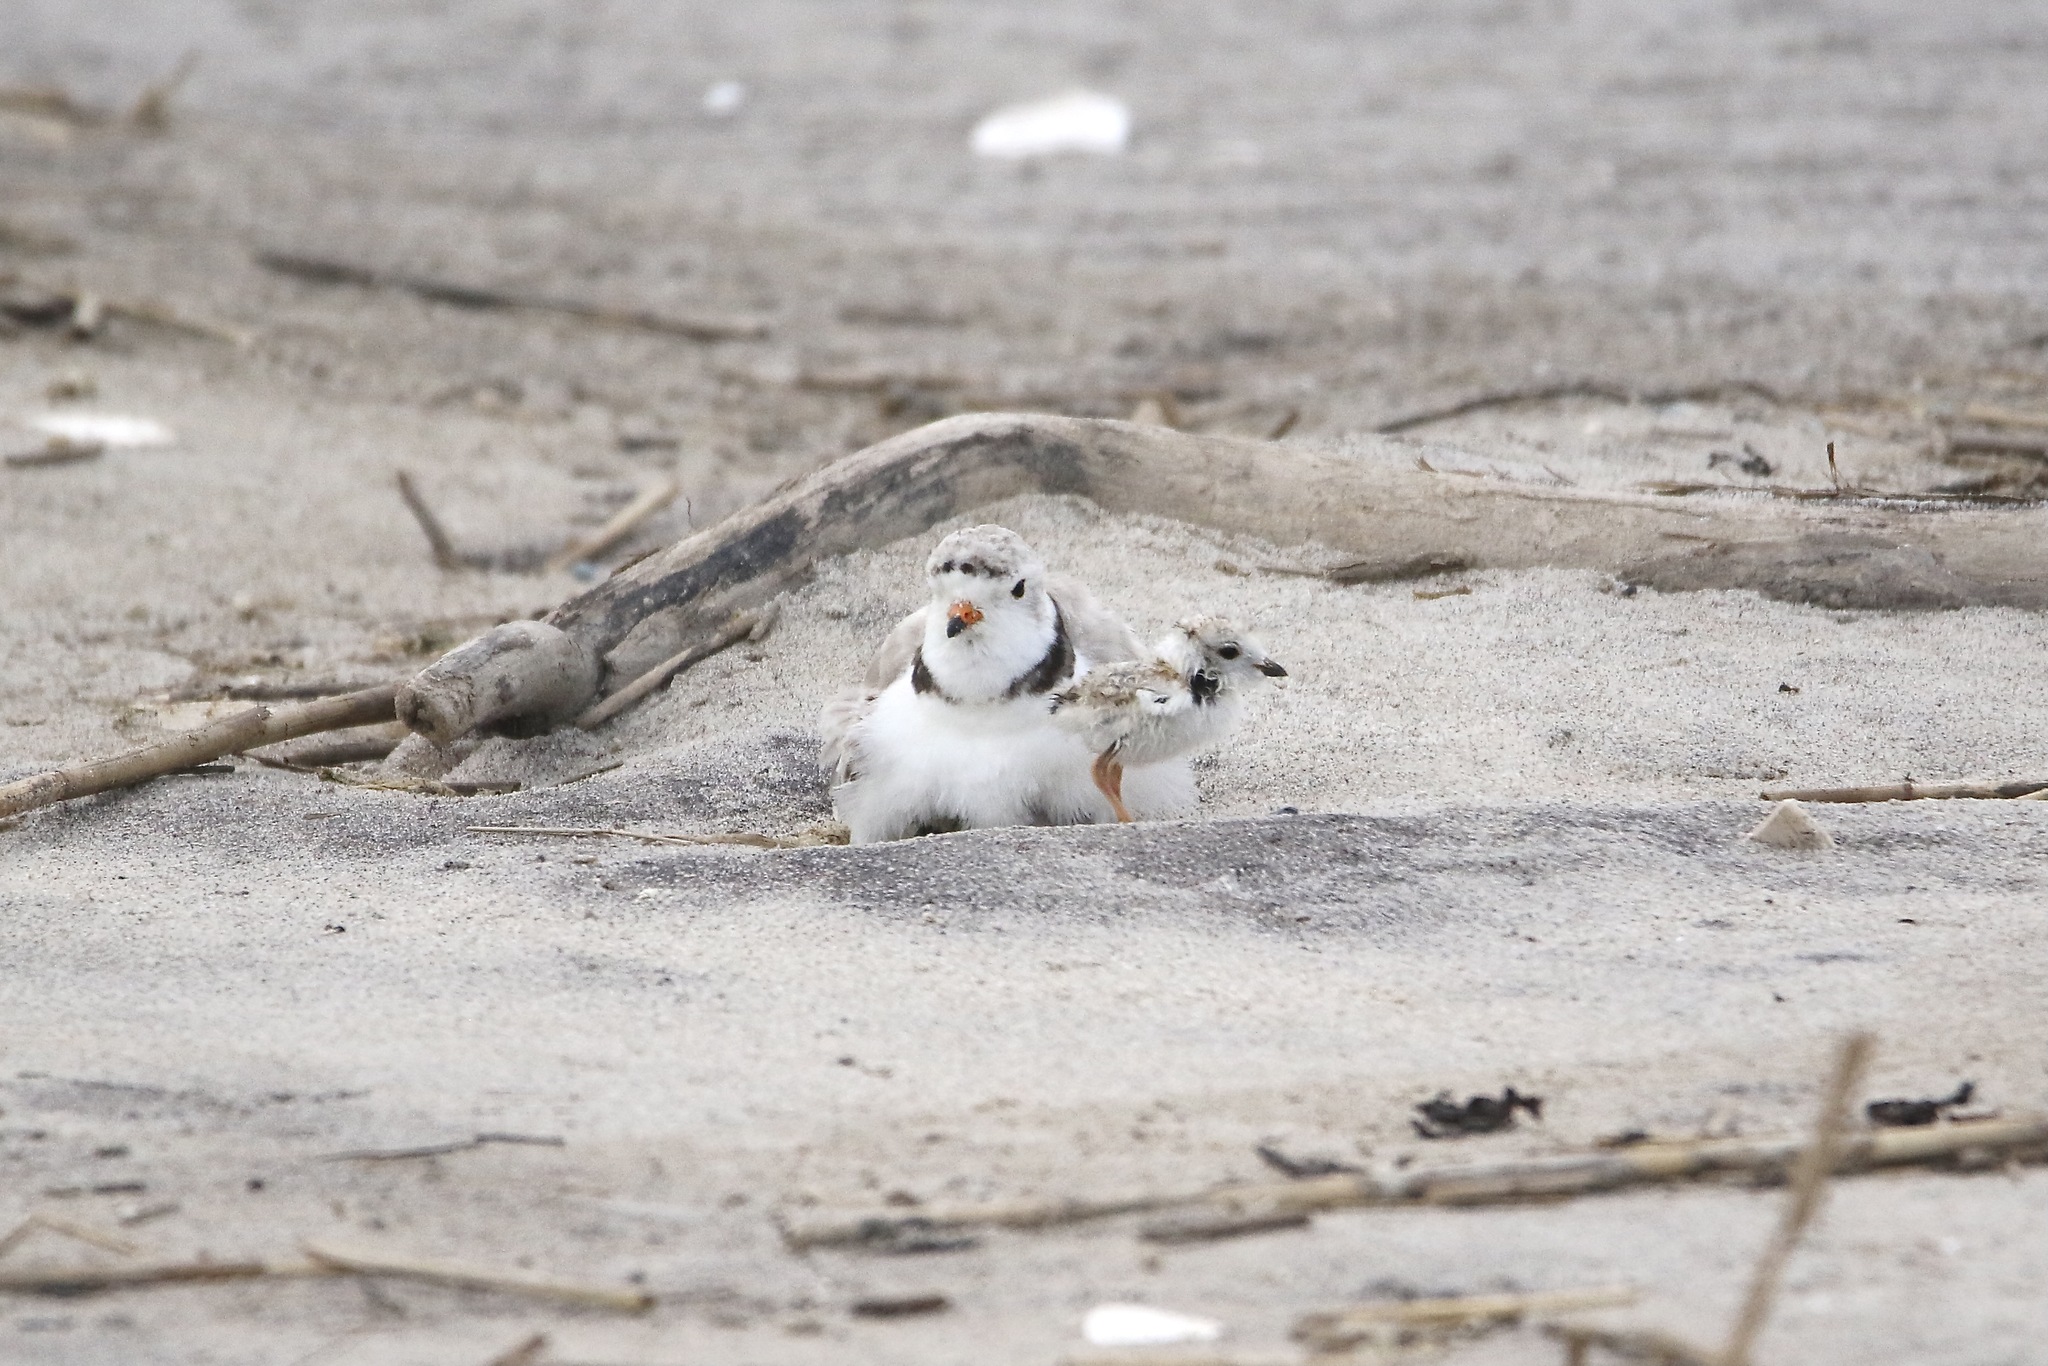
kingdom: Animalia
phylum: Chordata
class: Aves
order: Charadriiformes
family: Charadriidae
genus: Charadrius
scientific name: Charadrius melodus
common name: Piping plover
